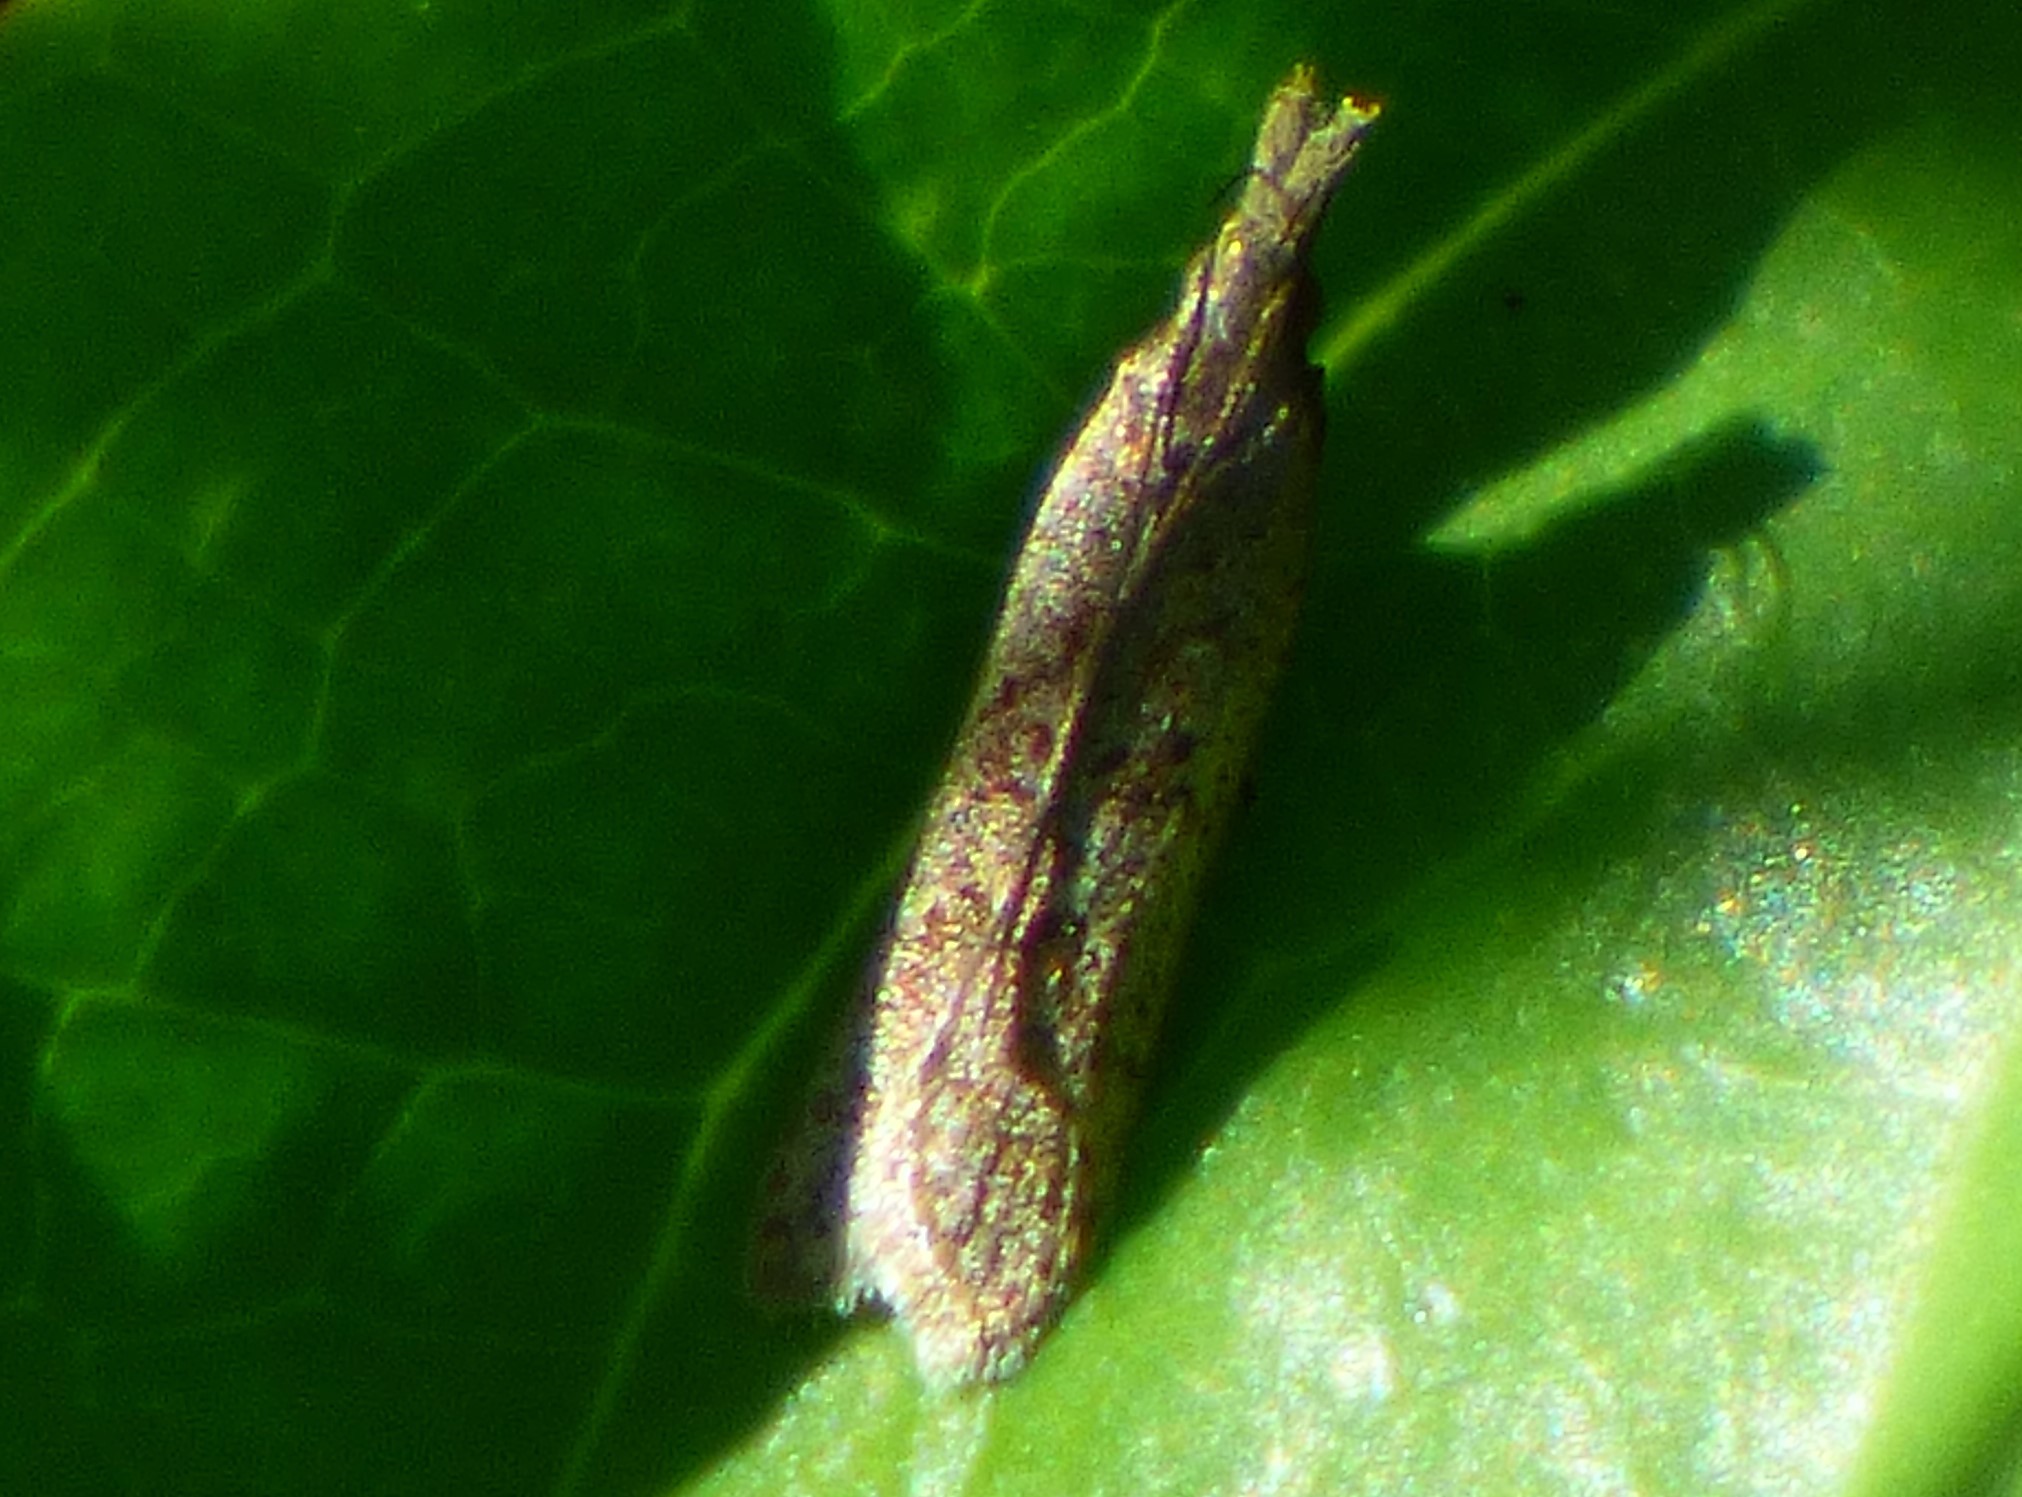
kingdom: Animalia
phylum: Arthropoda
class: Insecta
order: Lepidoptera
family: Gelechiidae
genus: Dichomeris
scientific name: Dichomeris ligulella
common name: Moth
